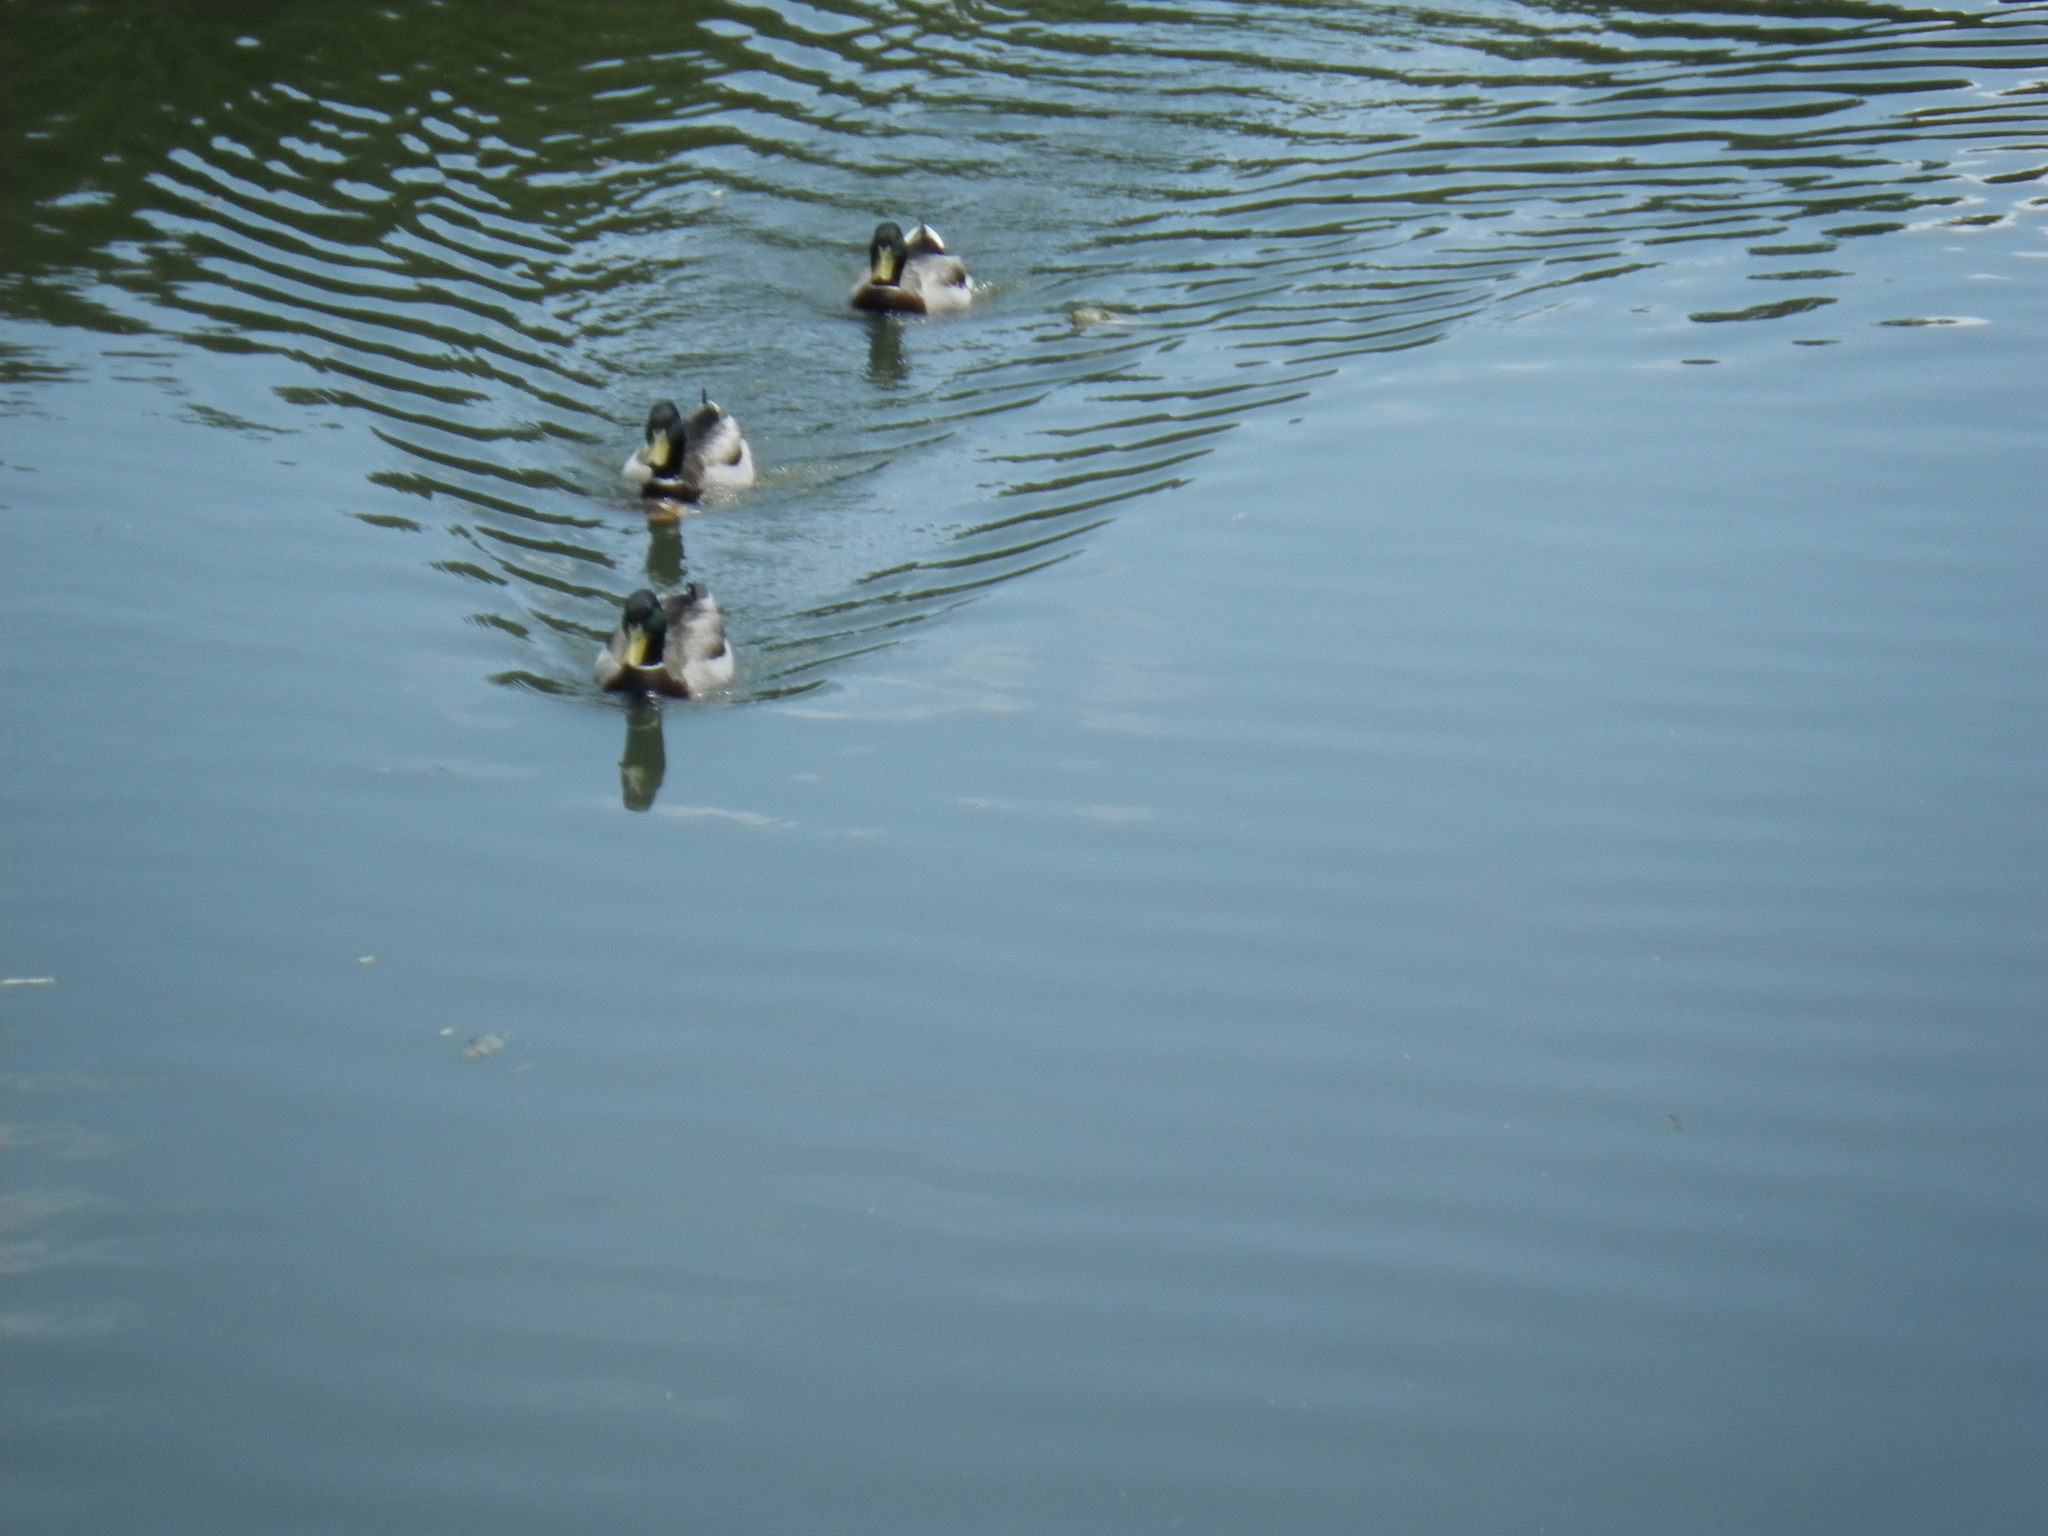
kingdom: Animalia
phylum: Chordata
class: Aves
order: Anseriformes
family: Anatidae
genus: Anas
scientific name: Anas platyrhynchos
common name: Mallard
